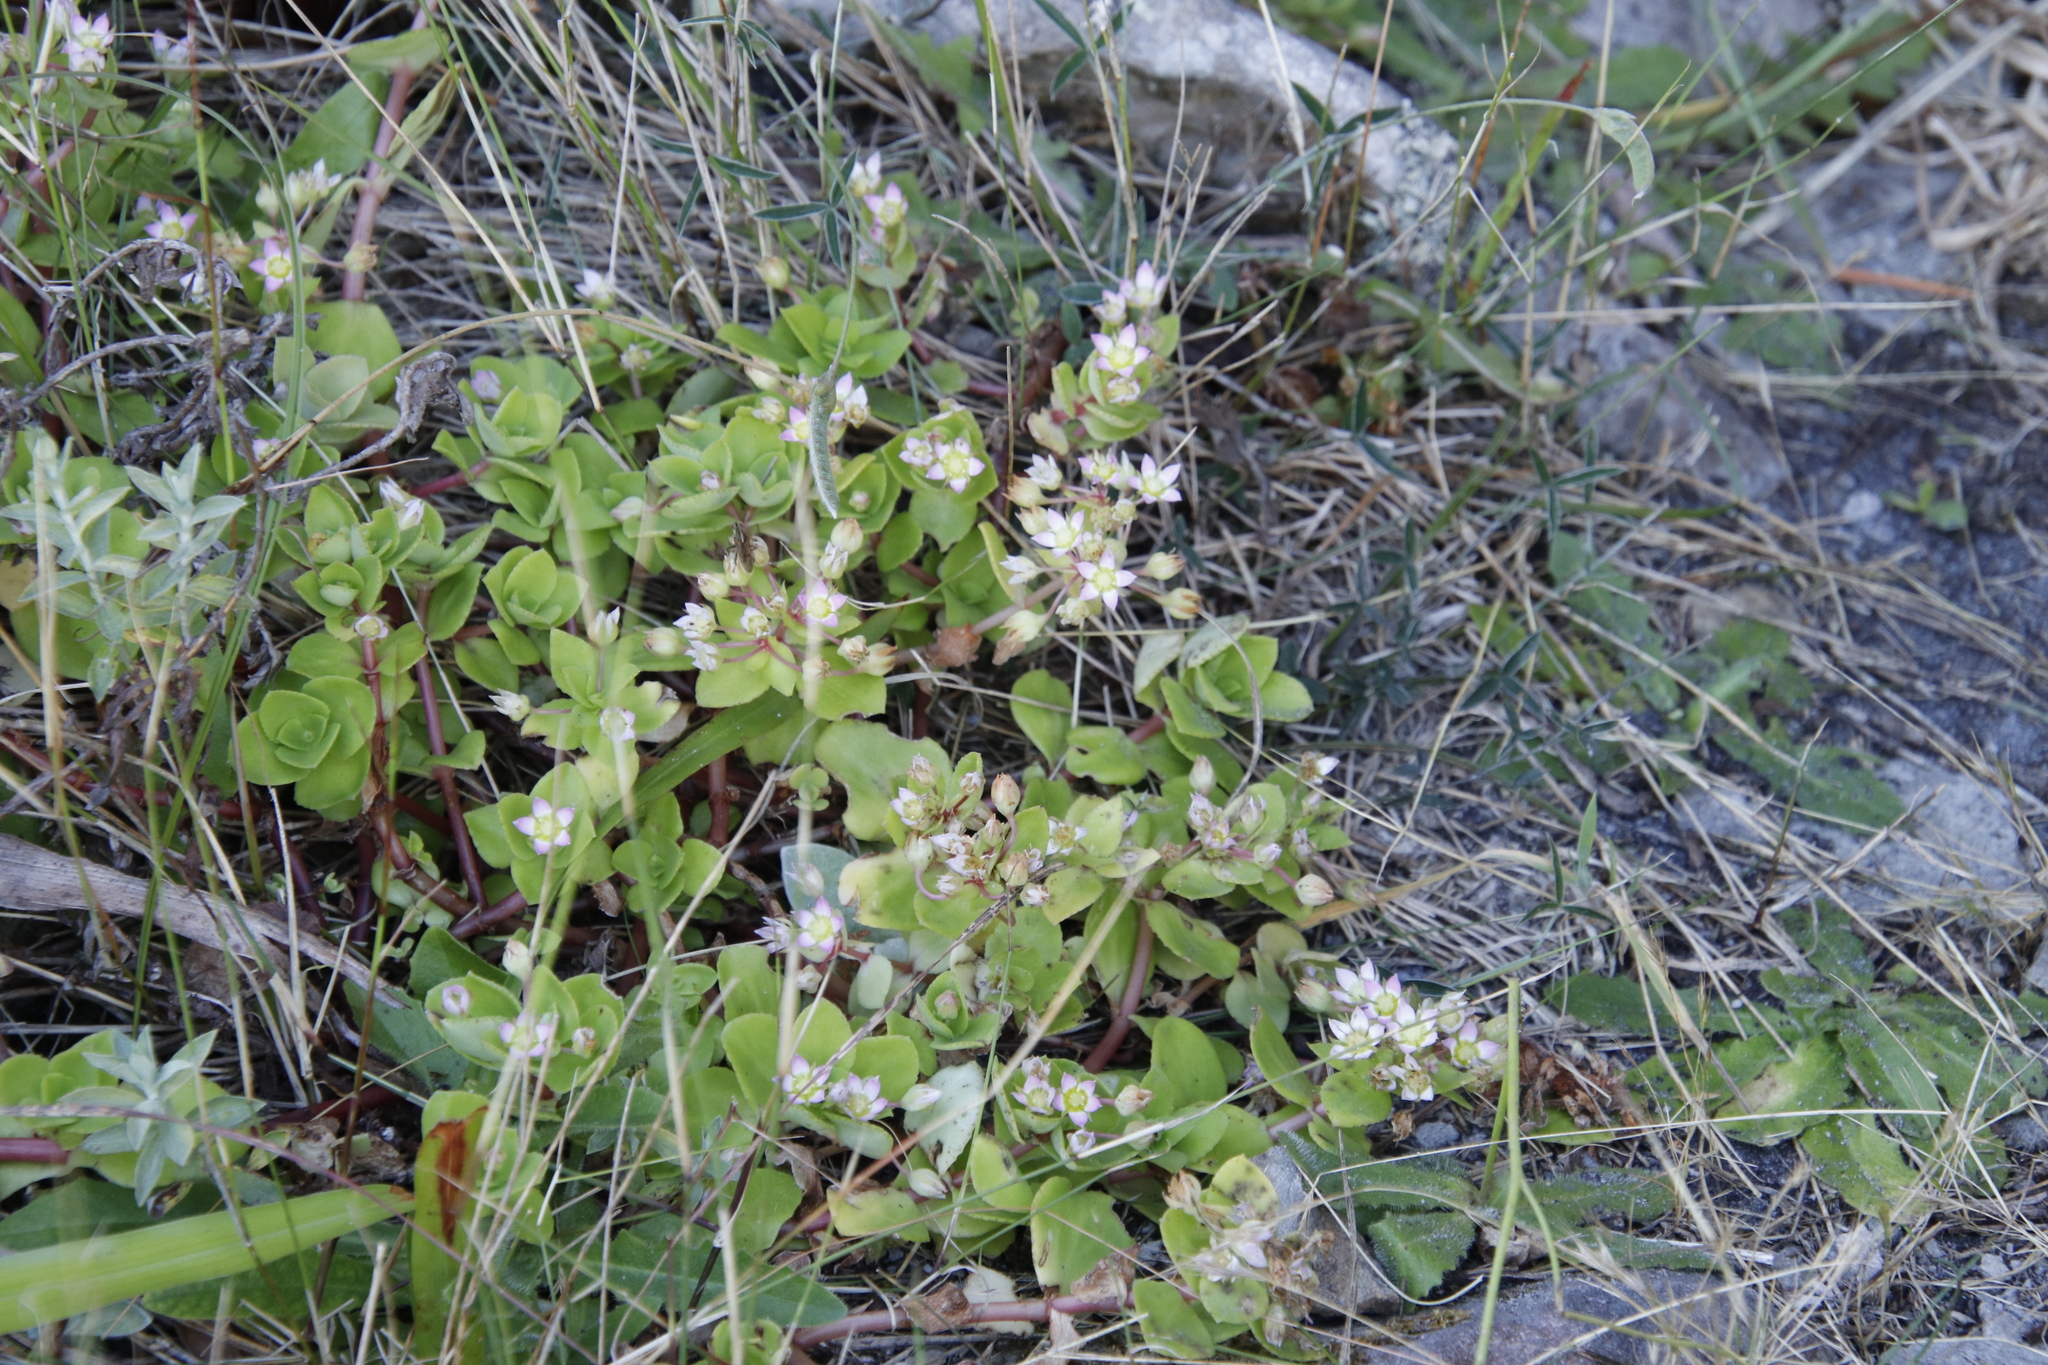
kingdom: Plantae
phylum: Tracheophyta
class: Magnoliopsida
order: Saxifragales
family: Crassulaceae
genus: Crassula
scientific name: Crassula pellucida
